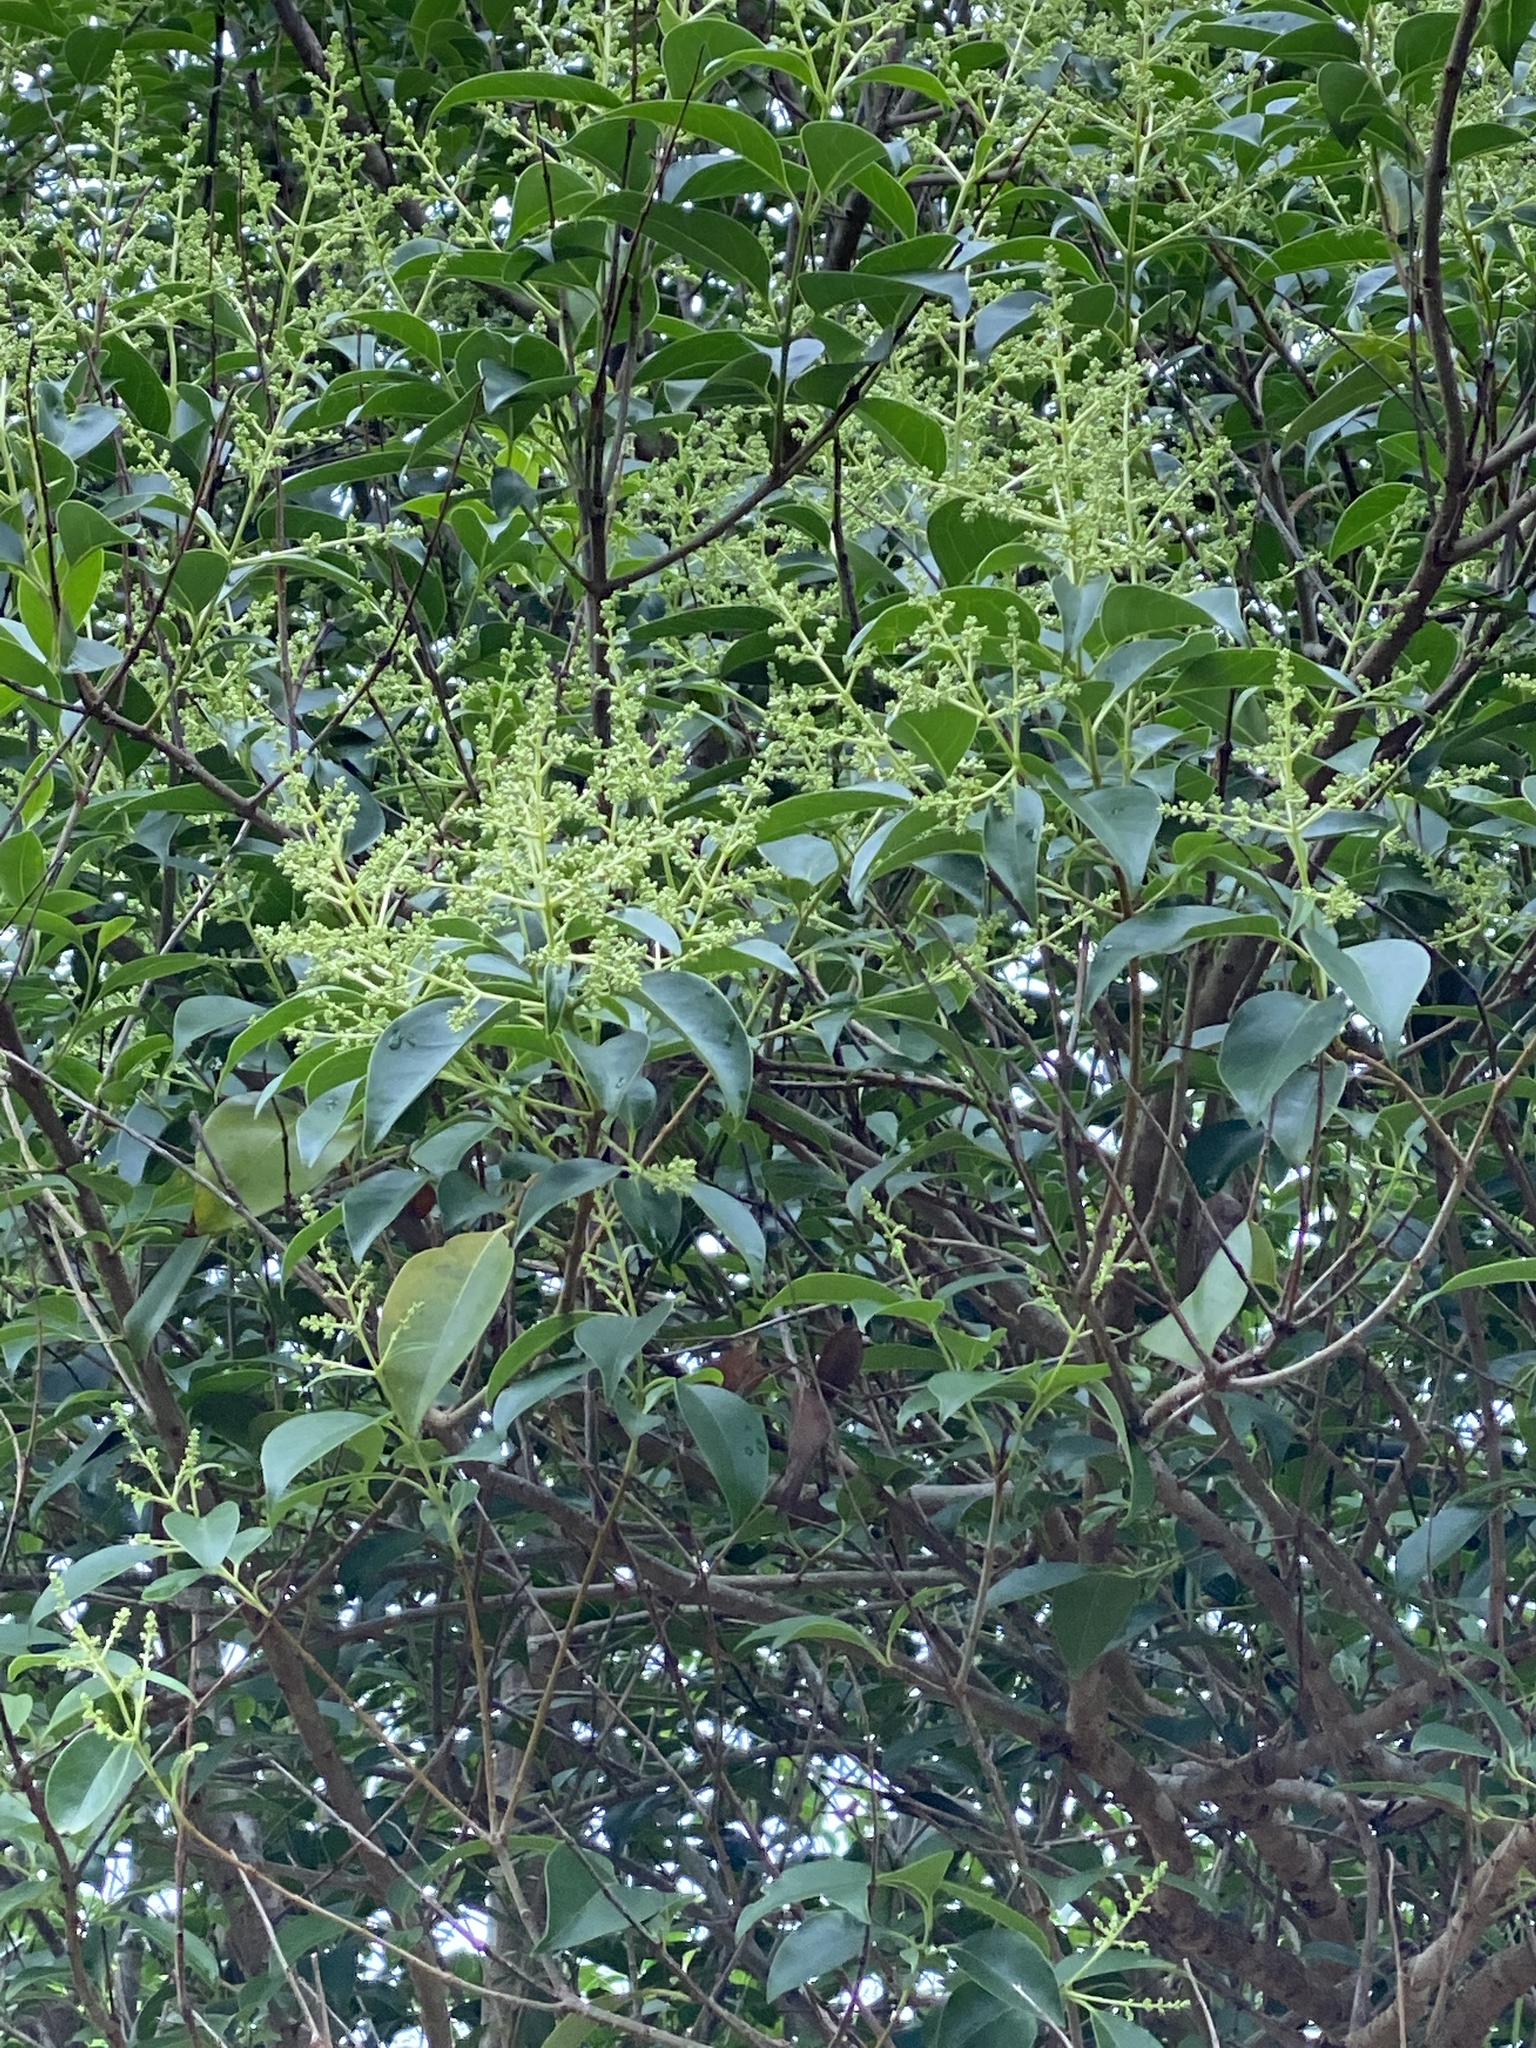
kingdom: Plantae
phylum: Tracheophyta
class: Magnoliopsida
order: Lamiales
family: Oleaceae
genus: Ligustrum
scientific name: Ligustrum lucidum
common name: Glossy privet
